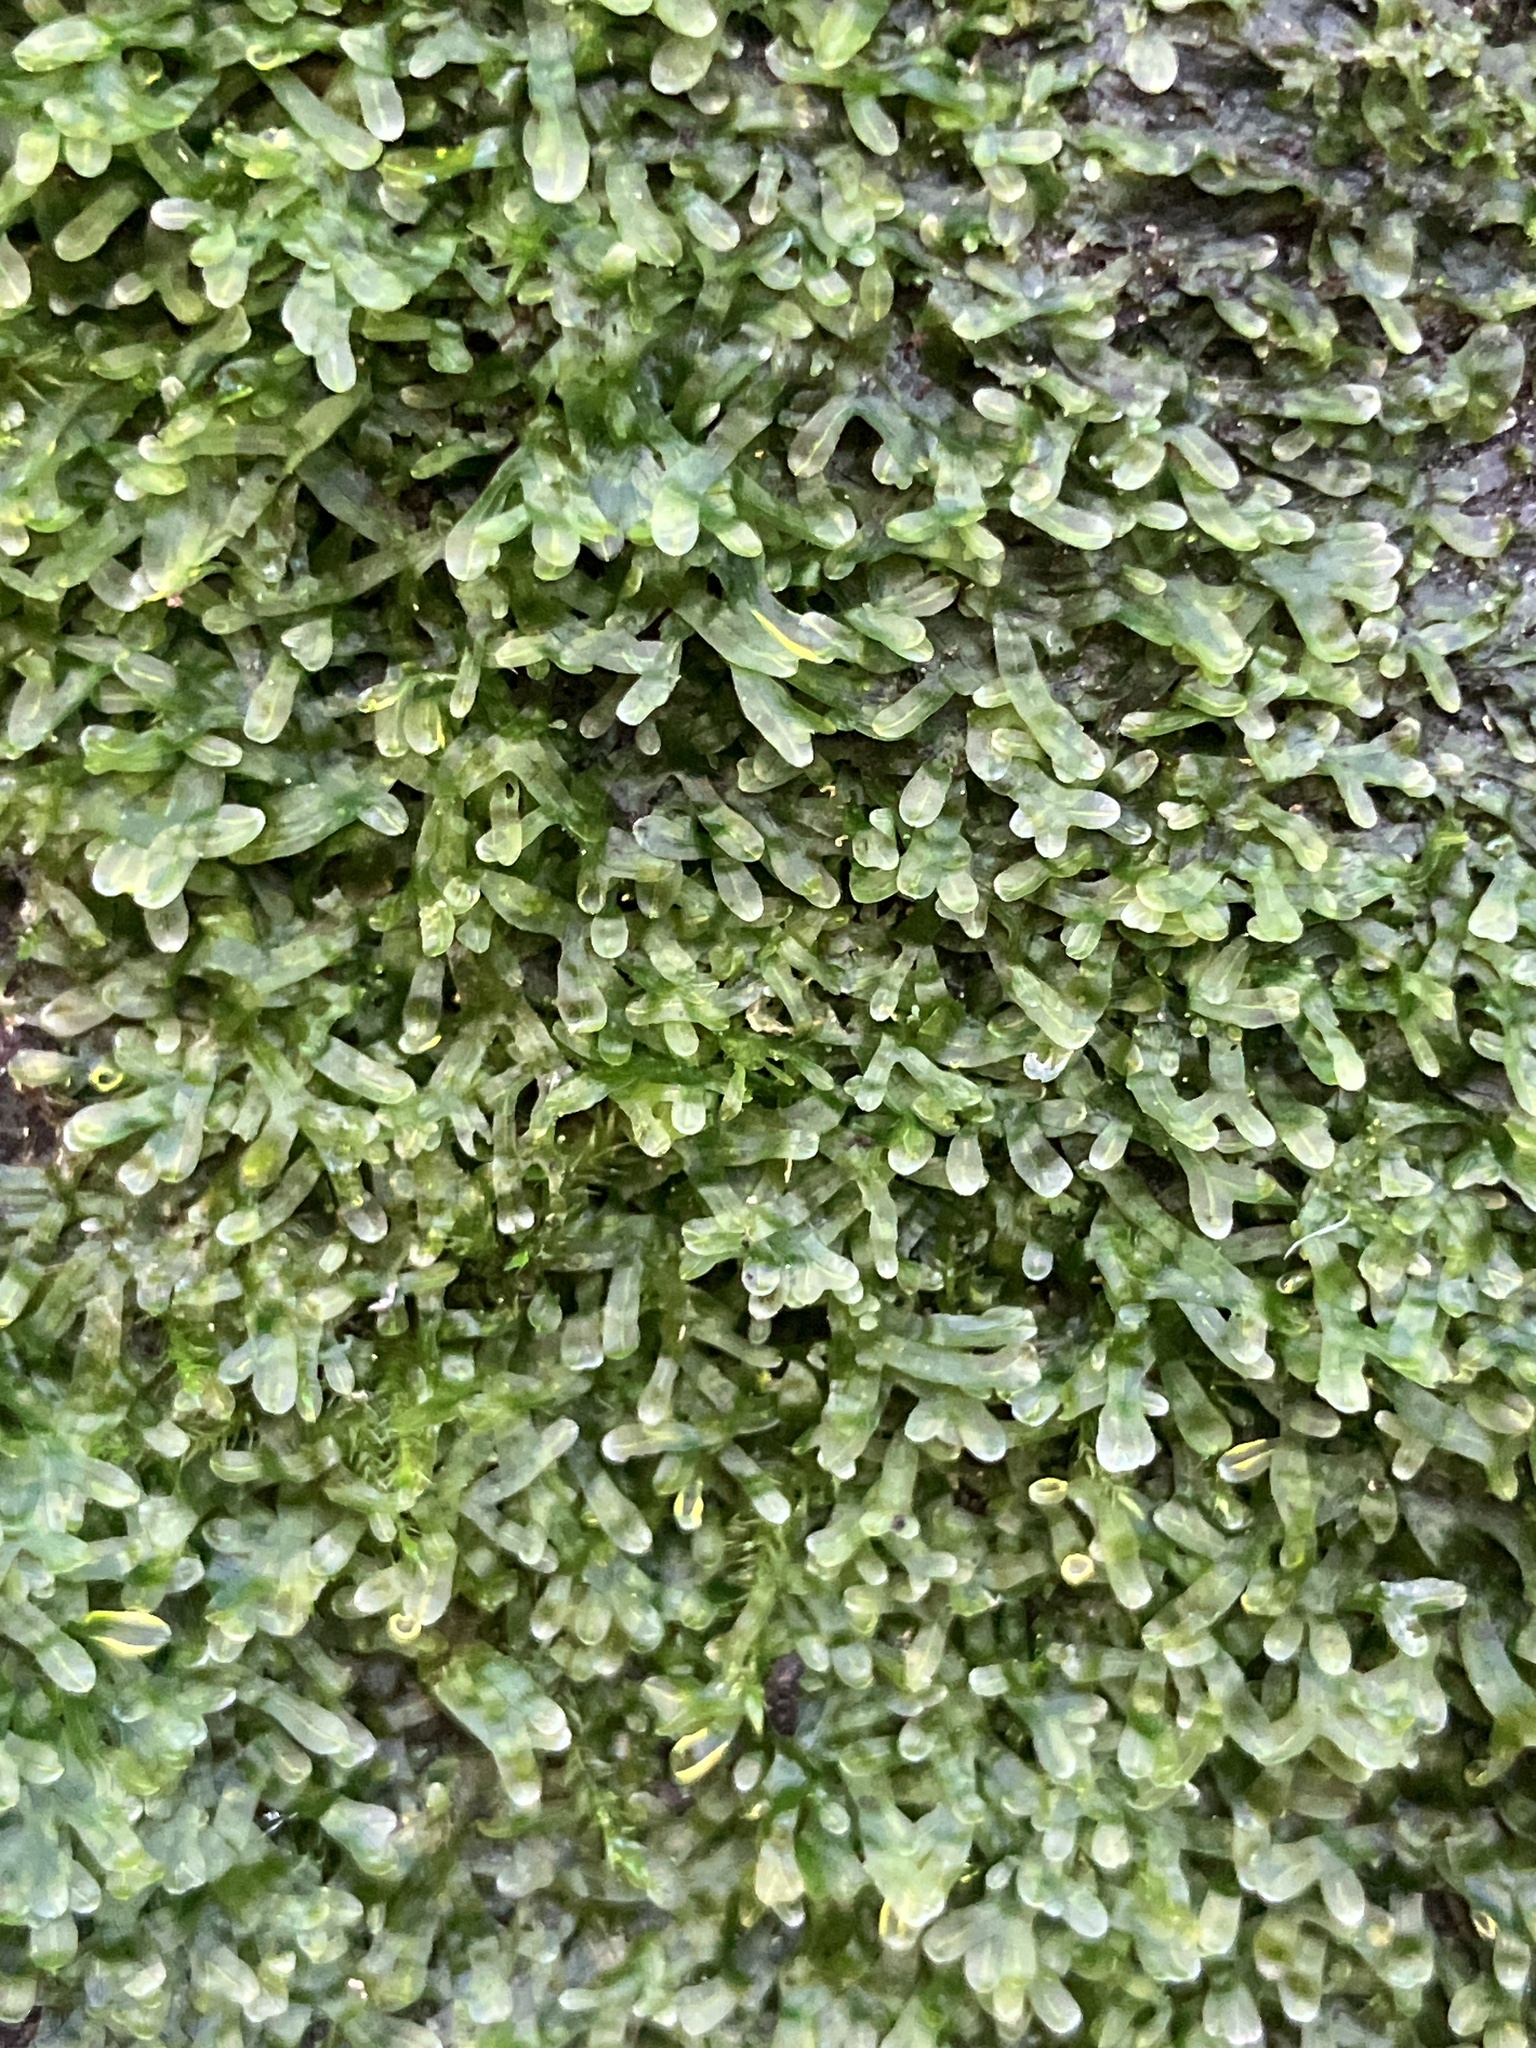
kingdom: Plantae
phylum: Marchantiophyta
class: Jungermanniopsida
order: Metzgeriales
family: Metzgeriaceae
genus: Metzgeria
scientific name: Metzgeria furcata
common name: Forked veilwort
